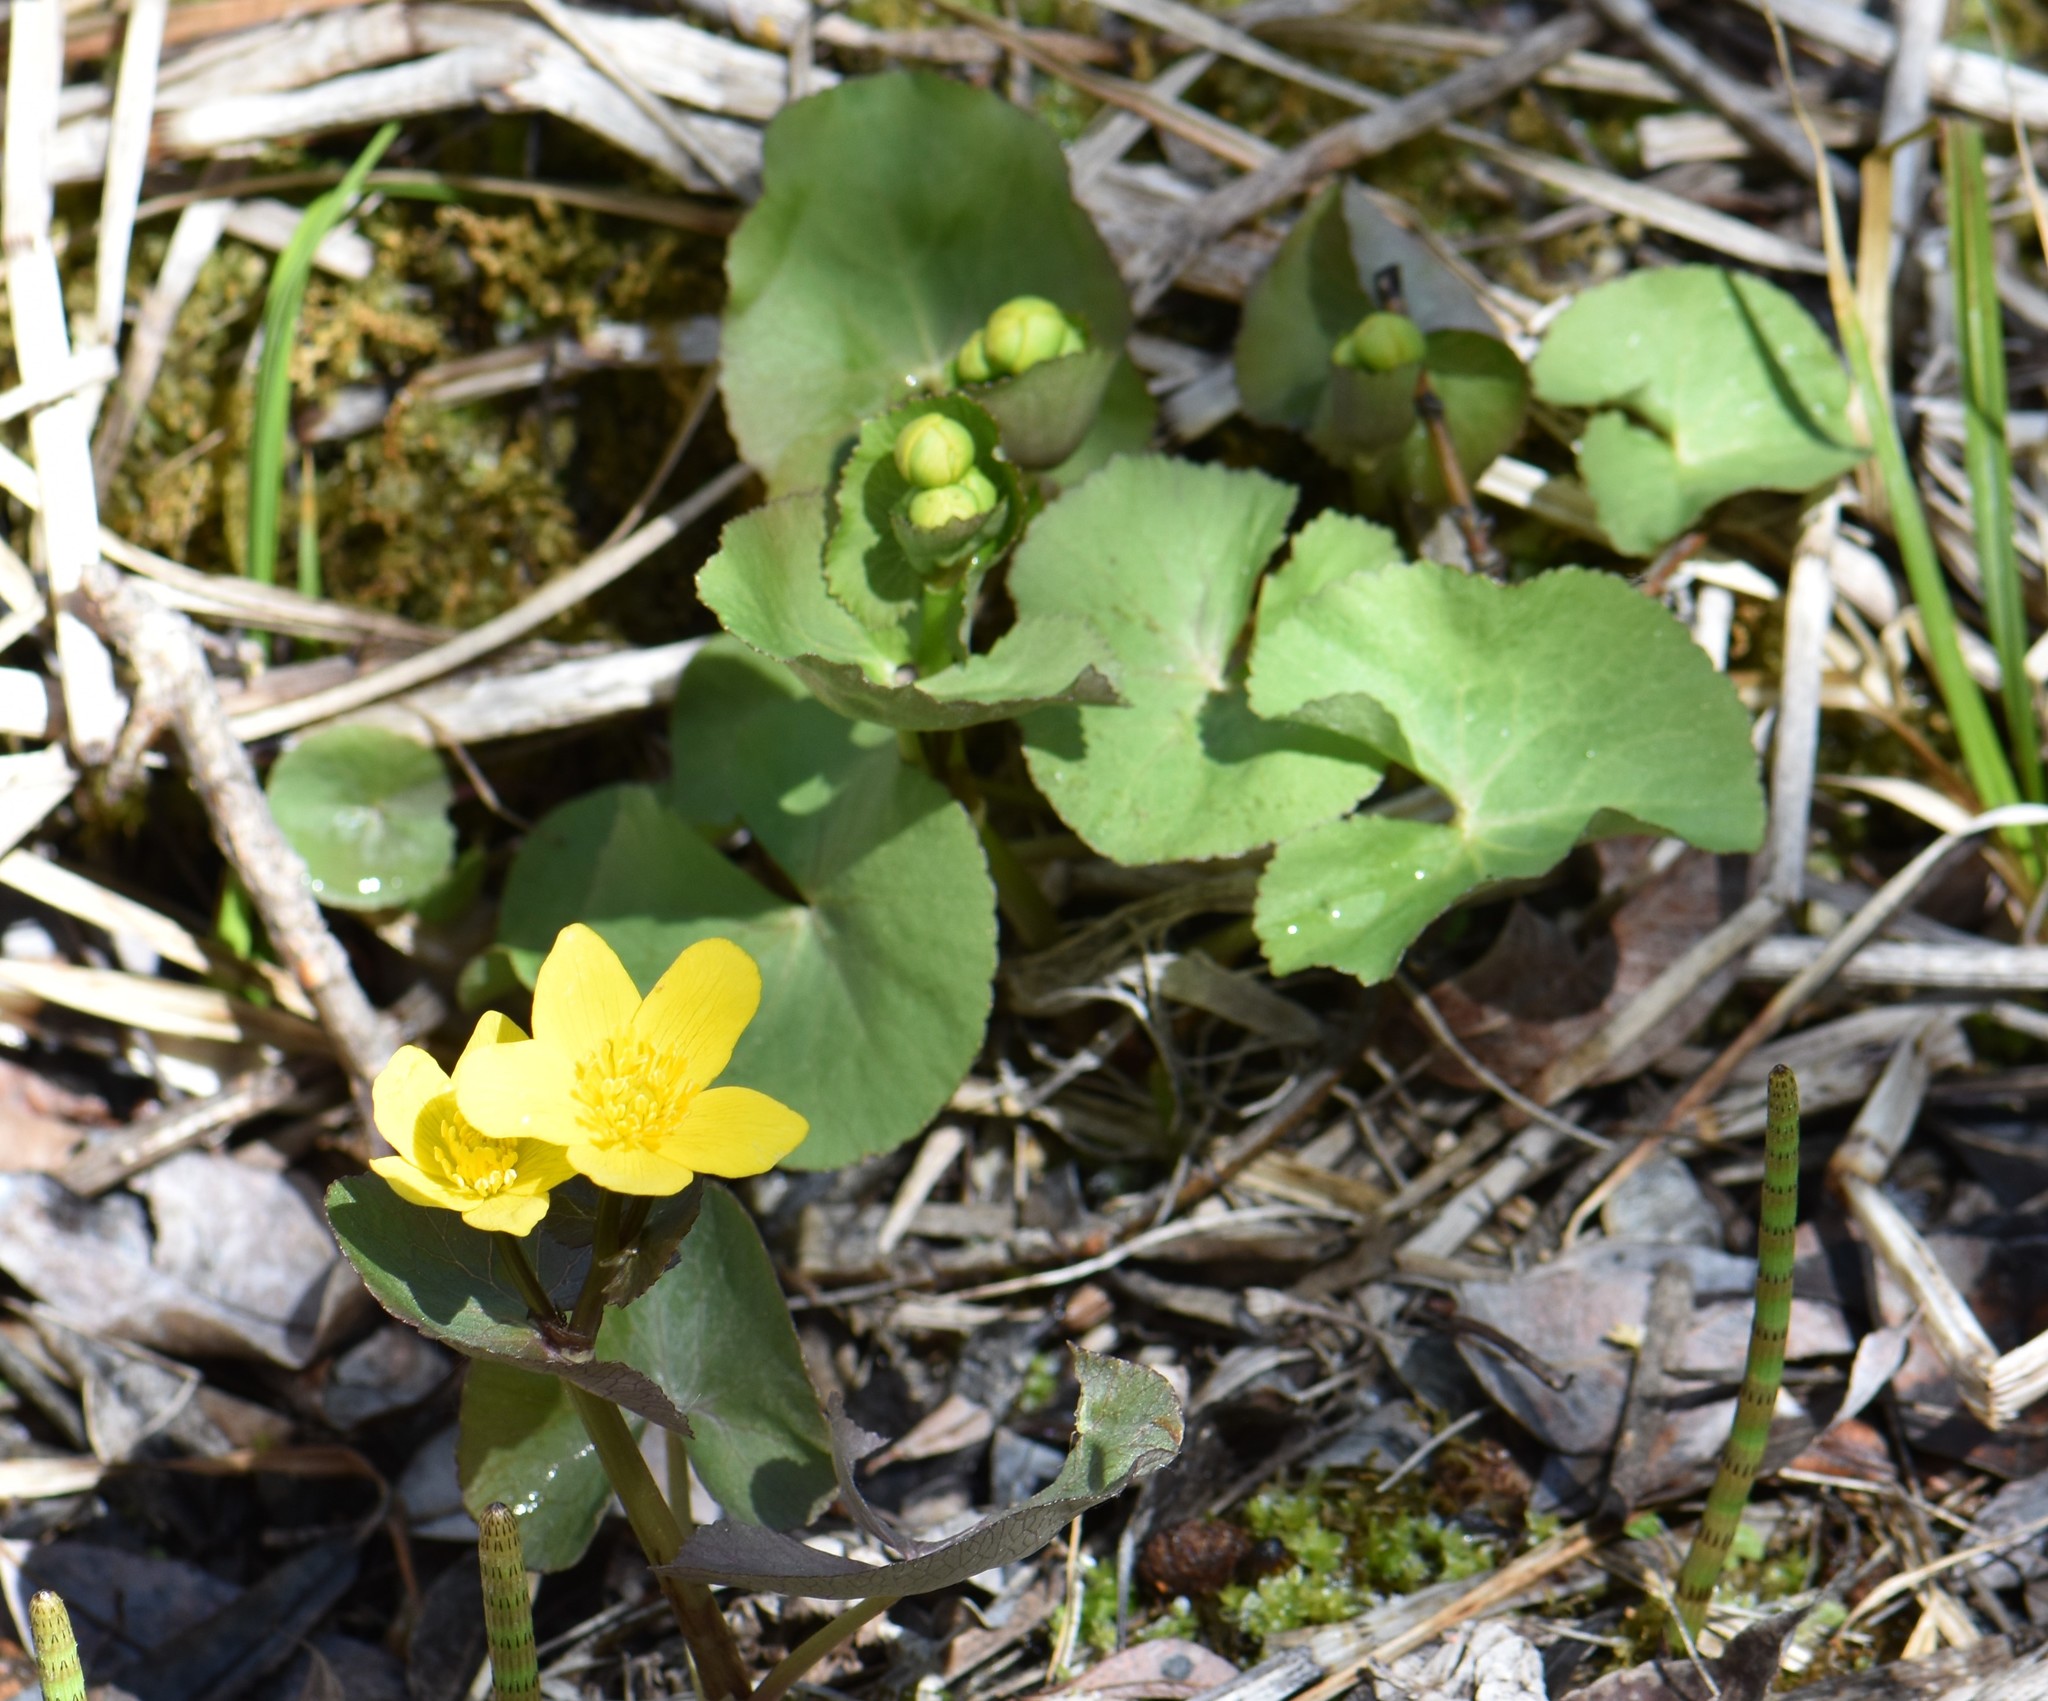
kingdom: Plantae
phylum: Tracheophyta
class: Magnoliopsida
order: Ranunculales
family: Ranunculaceae
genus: Caltha
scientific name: Caltha palustris
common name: Marsh marigold
